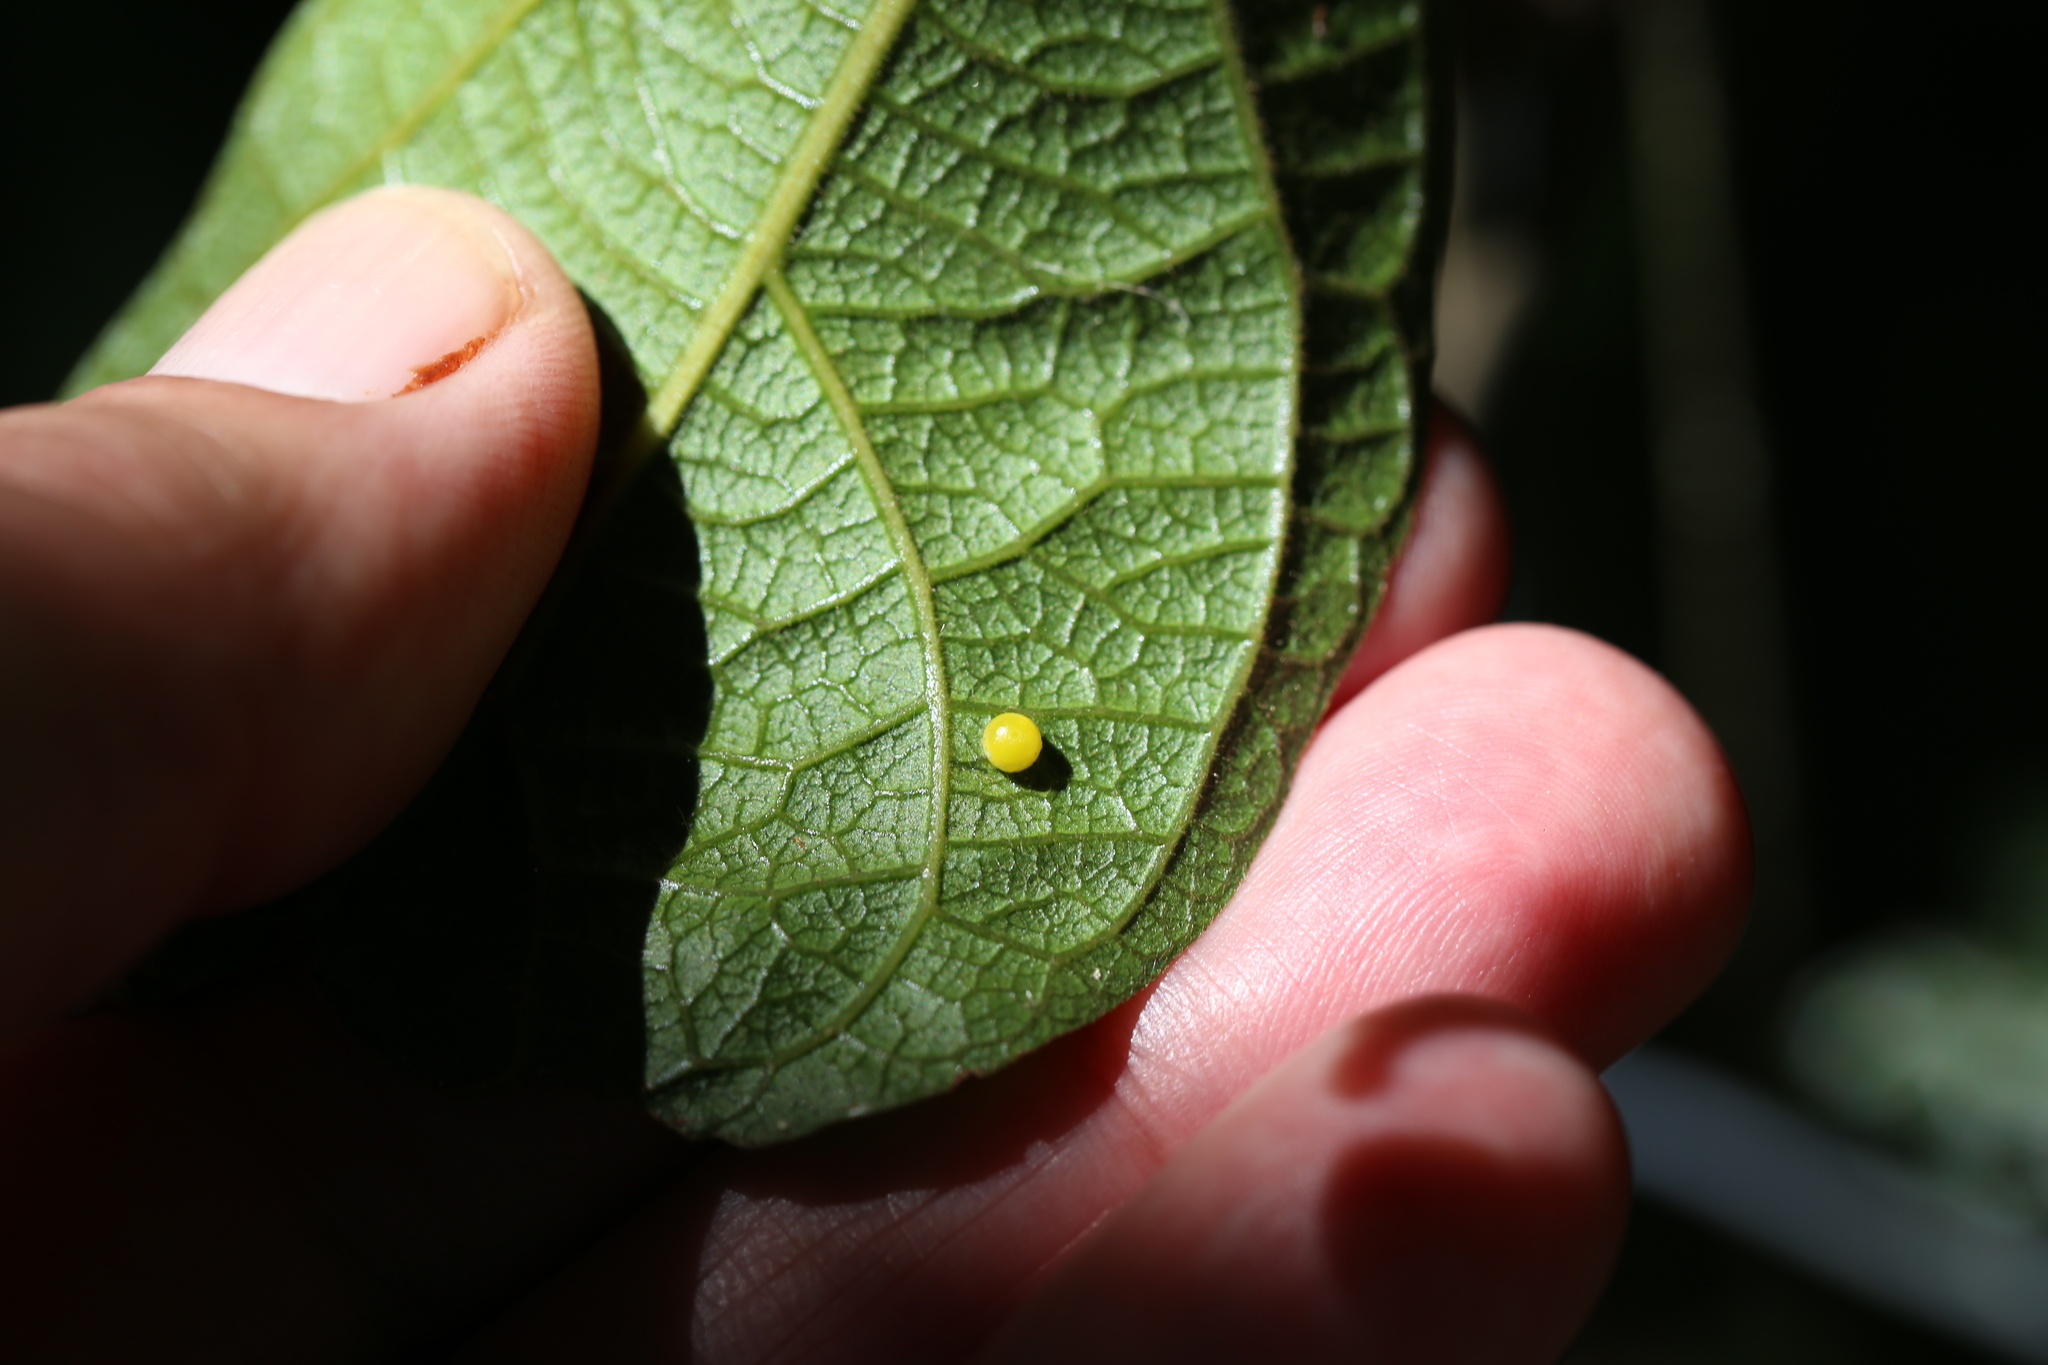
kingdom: Animalia
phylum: Arthropoda
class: Insecta
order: Lepidoptera
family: Papilionidae
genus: Ornithoptera
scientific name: Ornithoptera richmondia
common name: Richmond birdwing
